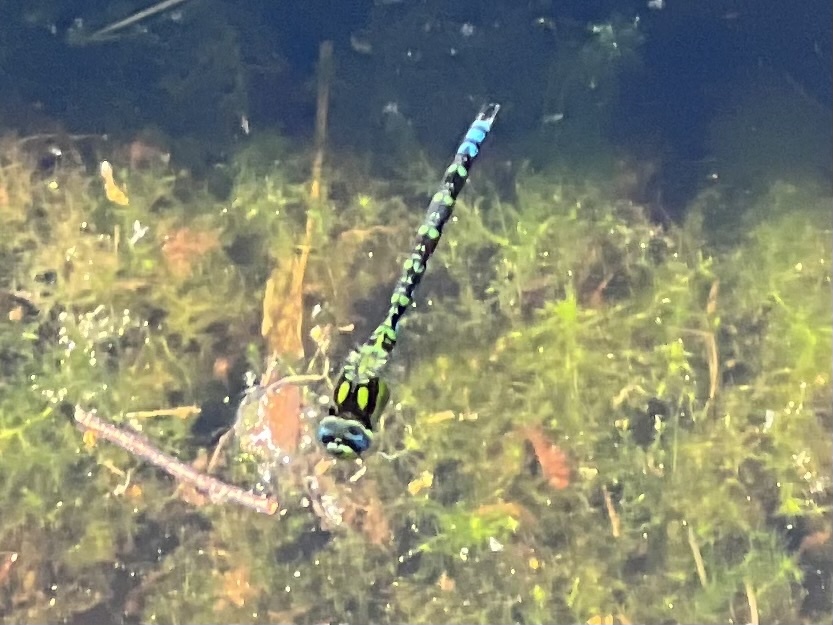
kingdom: Animalia
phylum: Arthropoda
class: Insecta
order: Odonata
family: Aeshnidae
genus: Aeshna
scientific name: Aeshna cyanea
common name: Southern hawker
